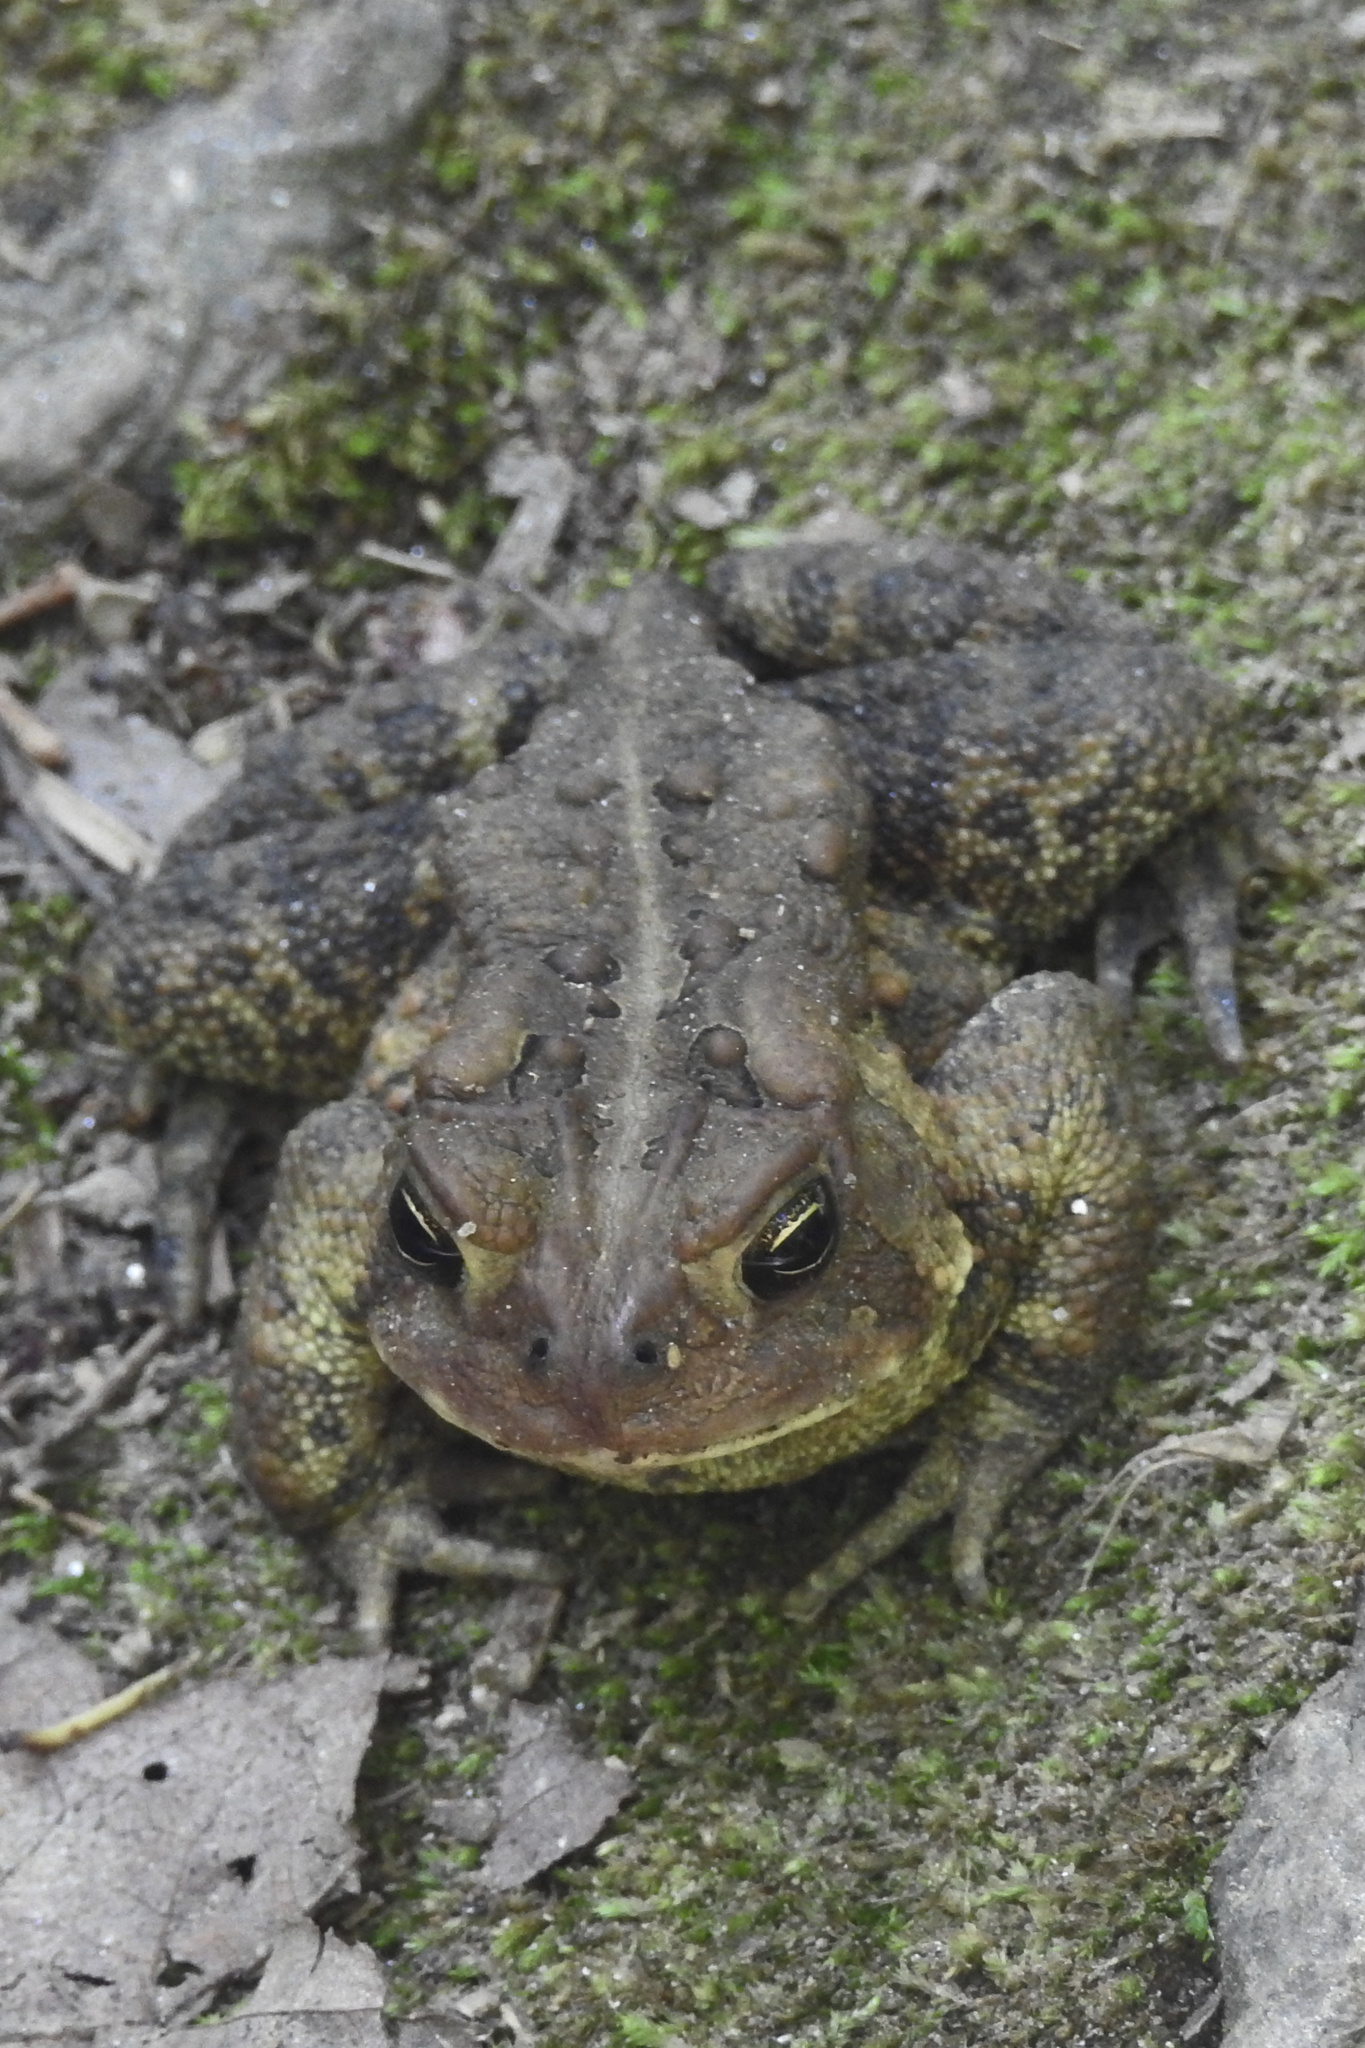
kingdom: Animalia
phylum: Chordata
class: Amphibia
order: Anura
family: Bufonidae
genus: Anaxyrus
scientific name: Anaxyrus americanus
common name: American toad
